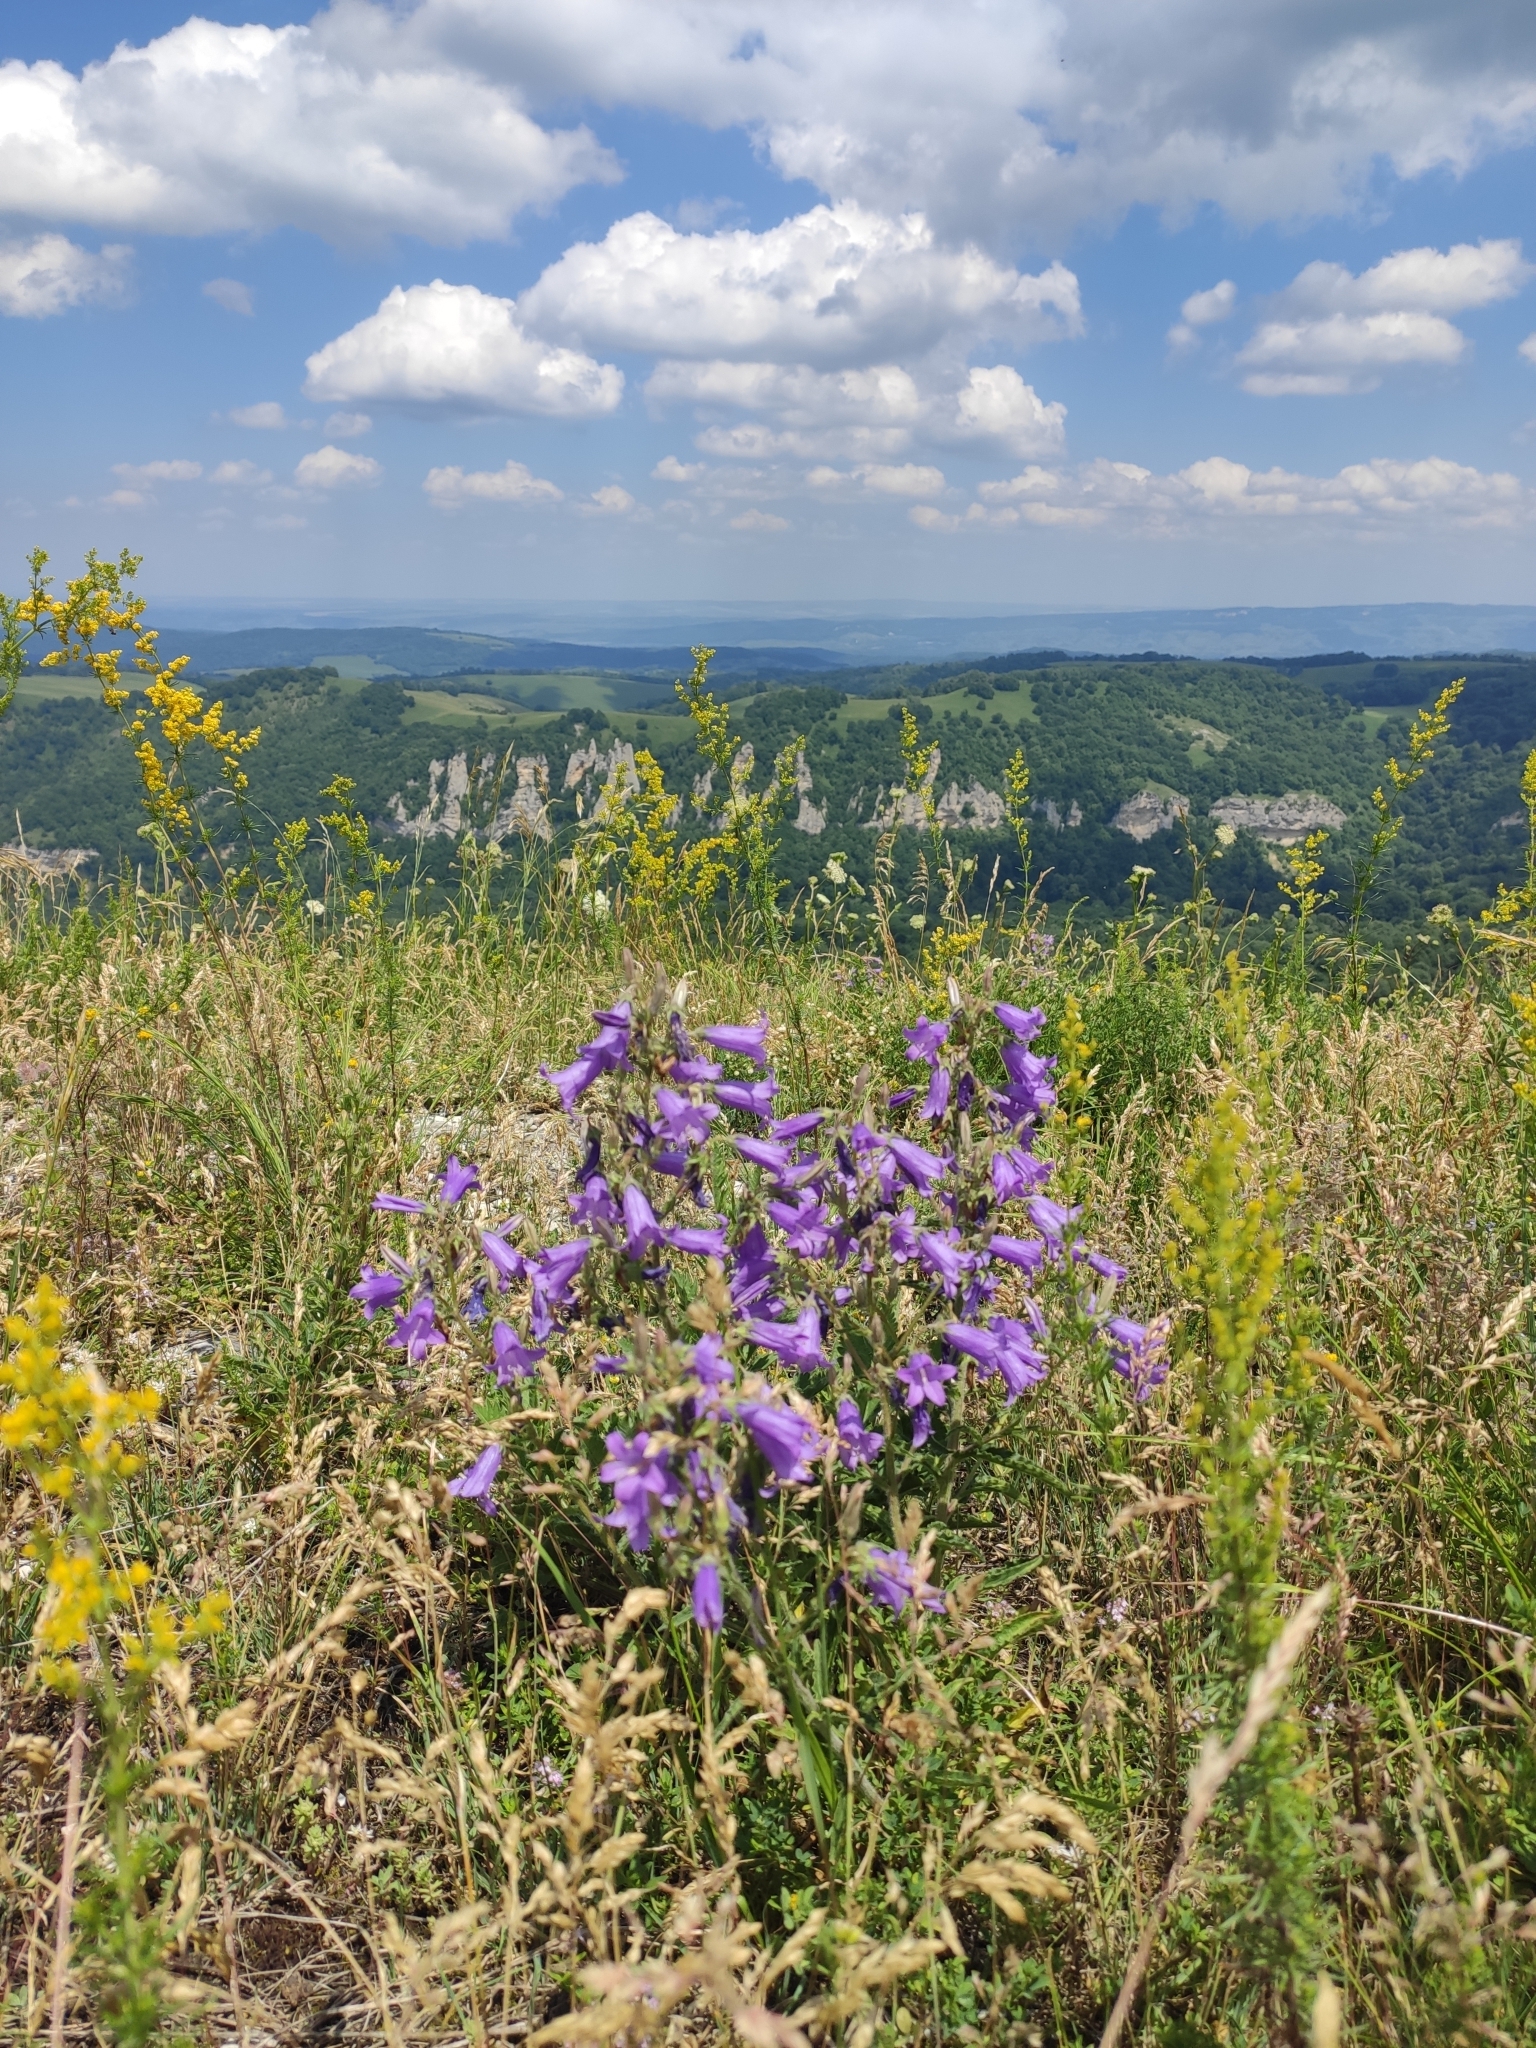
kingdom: Plantae
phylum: Tracheophyta
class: Magnoliopsida
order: Asterales
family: Campanulaceae
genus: Campanula
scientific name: Campanula sibirica
